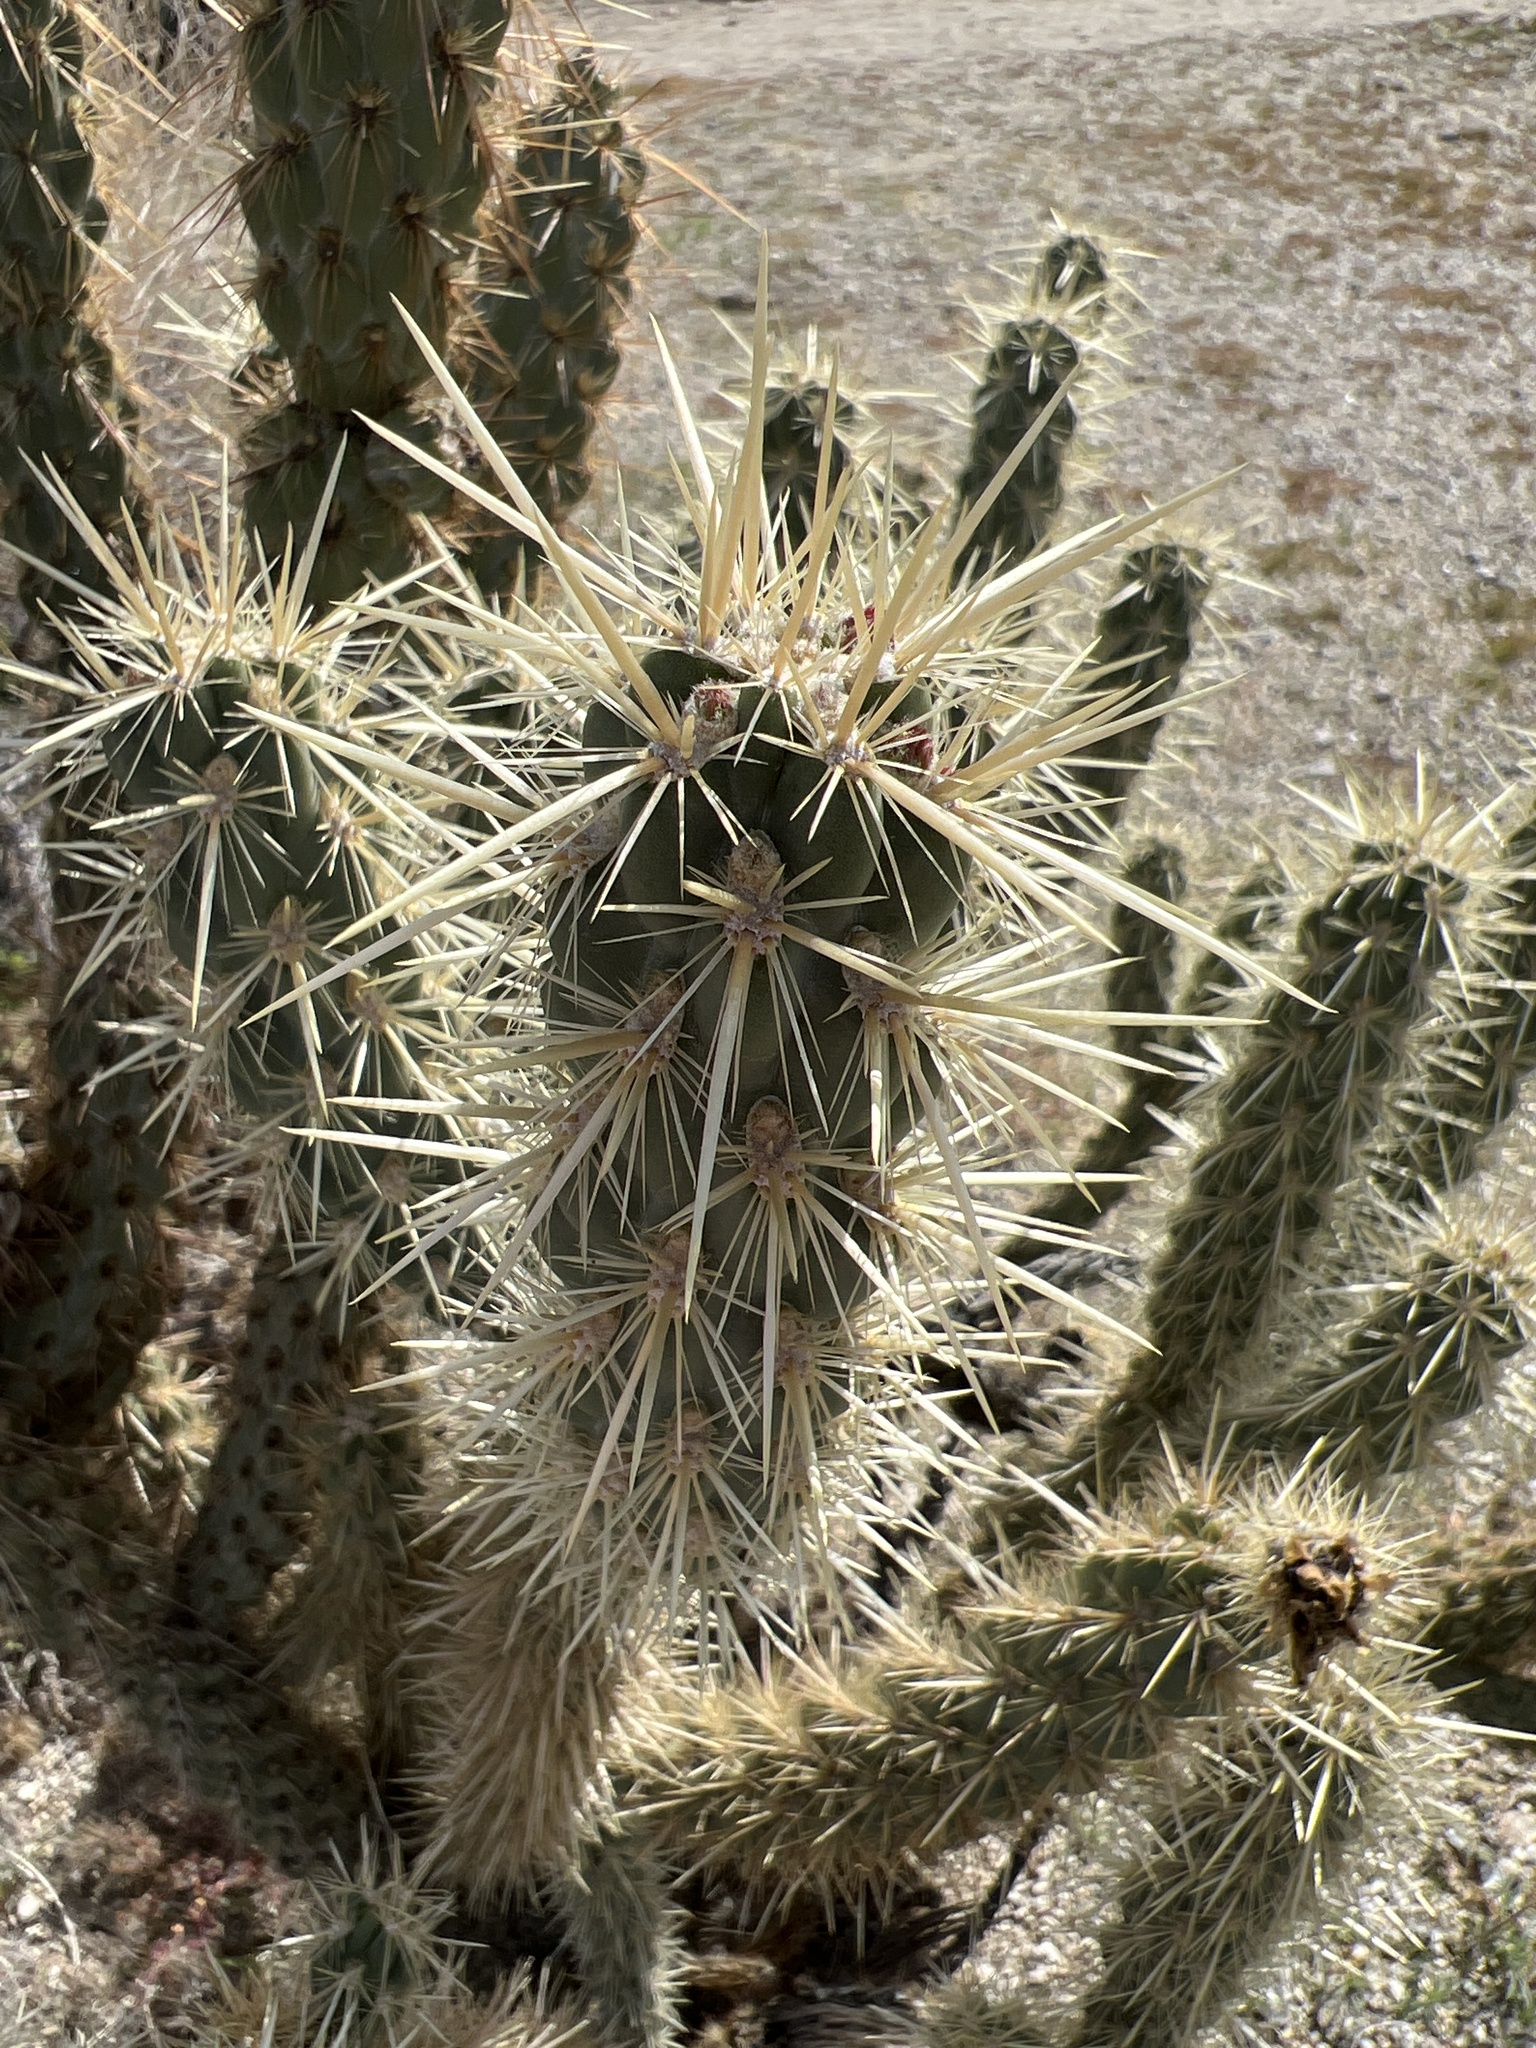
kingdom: Plantae
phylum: Tracheophyta
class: Magnoliopsida
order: Caryophyllales
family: Cactaceae
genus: Cylindropuntia
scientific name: Cylindropuntia ganderi
